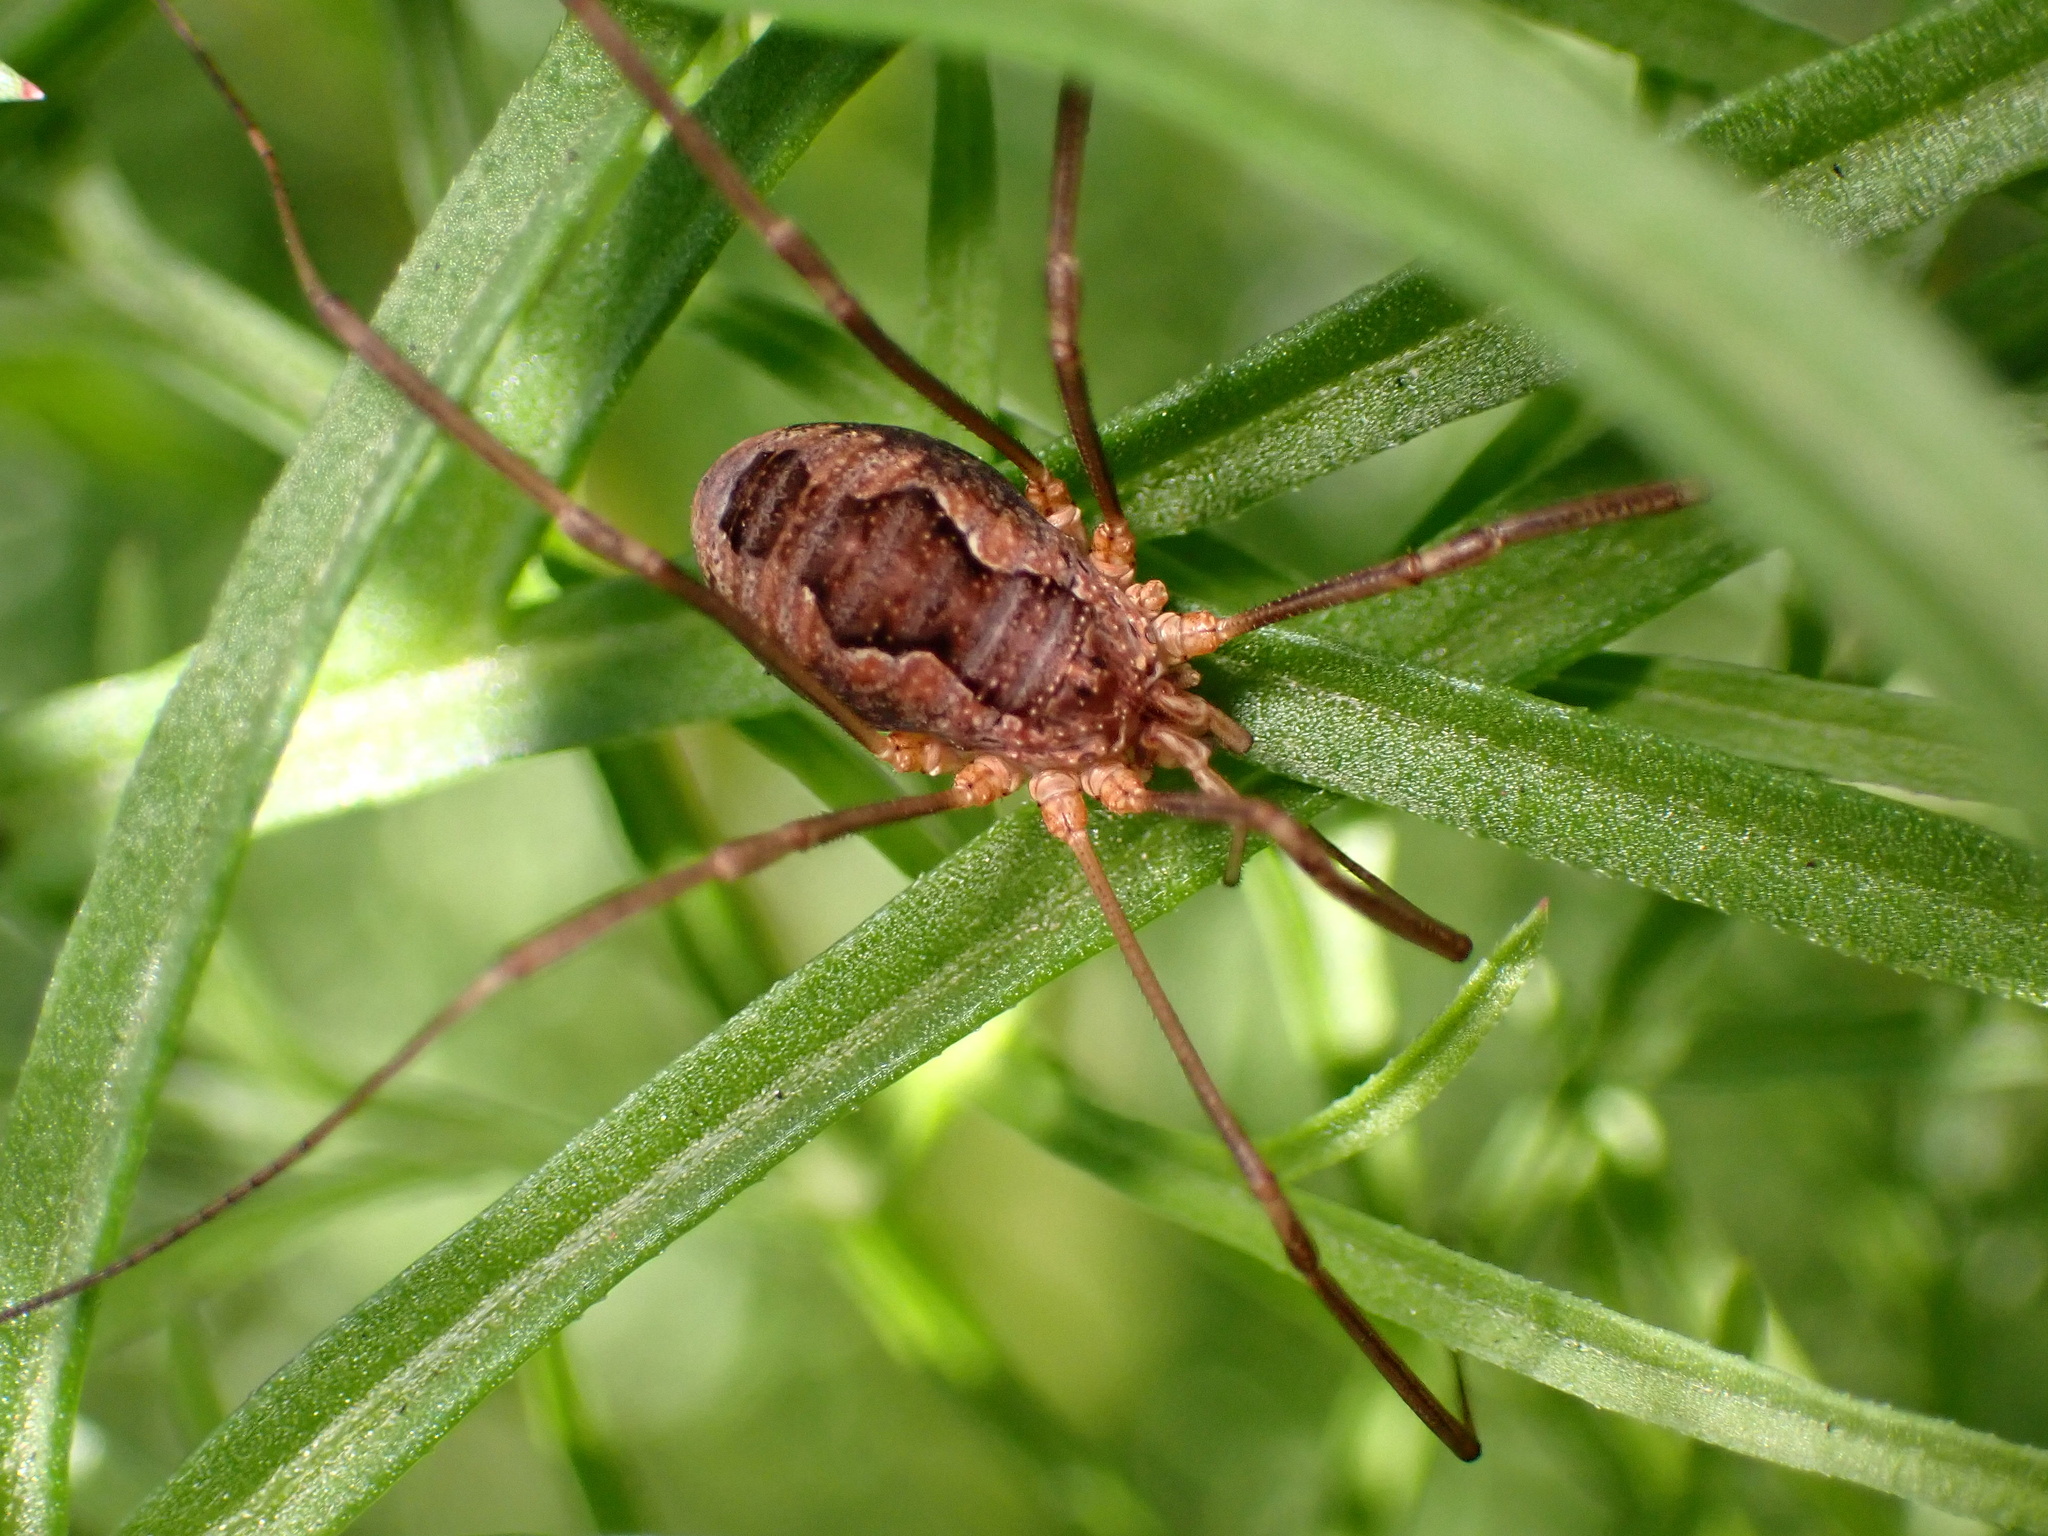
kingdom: Animalia
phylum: Arthropoda
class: Arachnida
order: Opiliones
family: Phalangiidae
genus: Phalangium
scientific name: Phalangium opilio
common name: Daddy longleg
